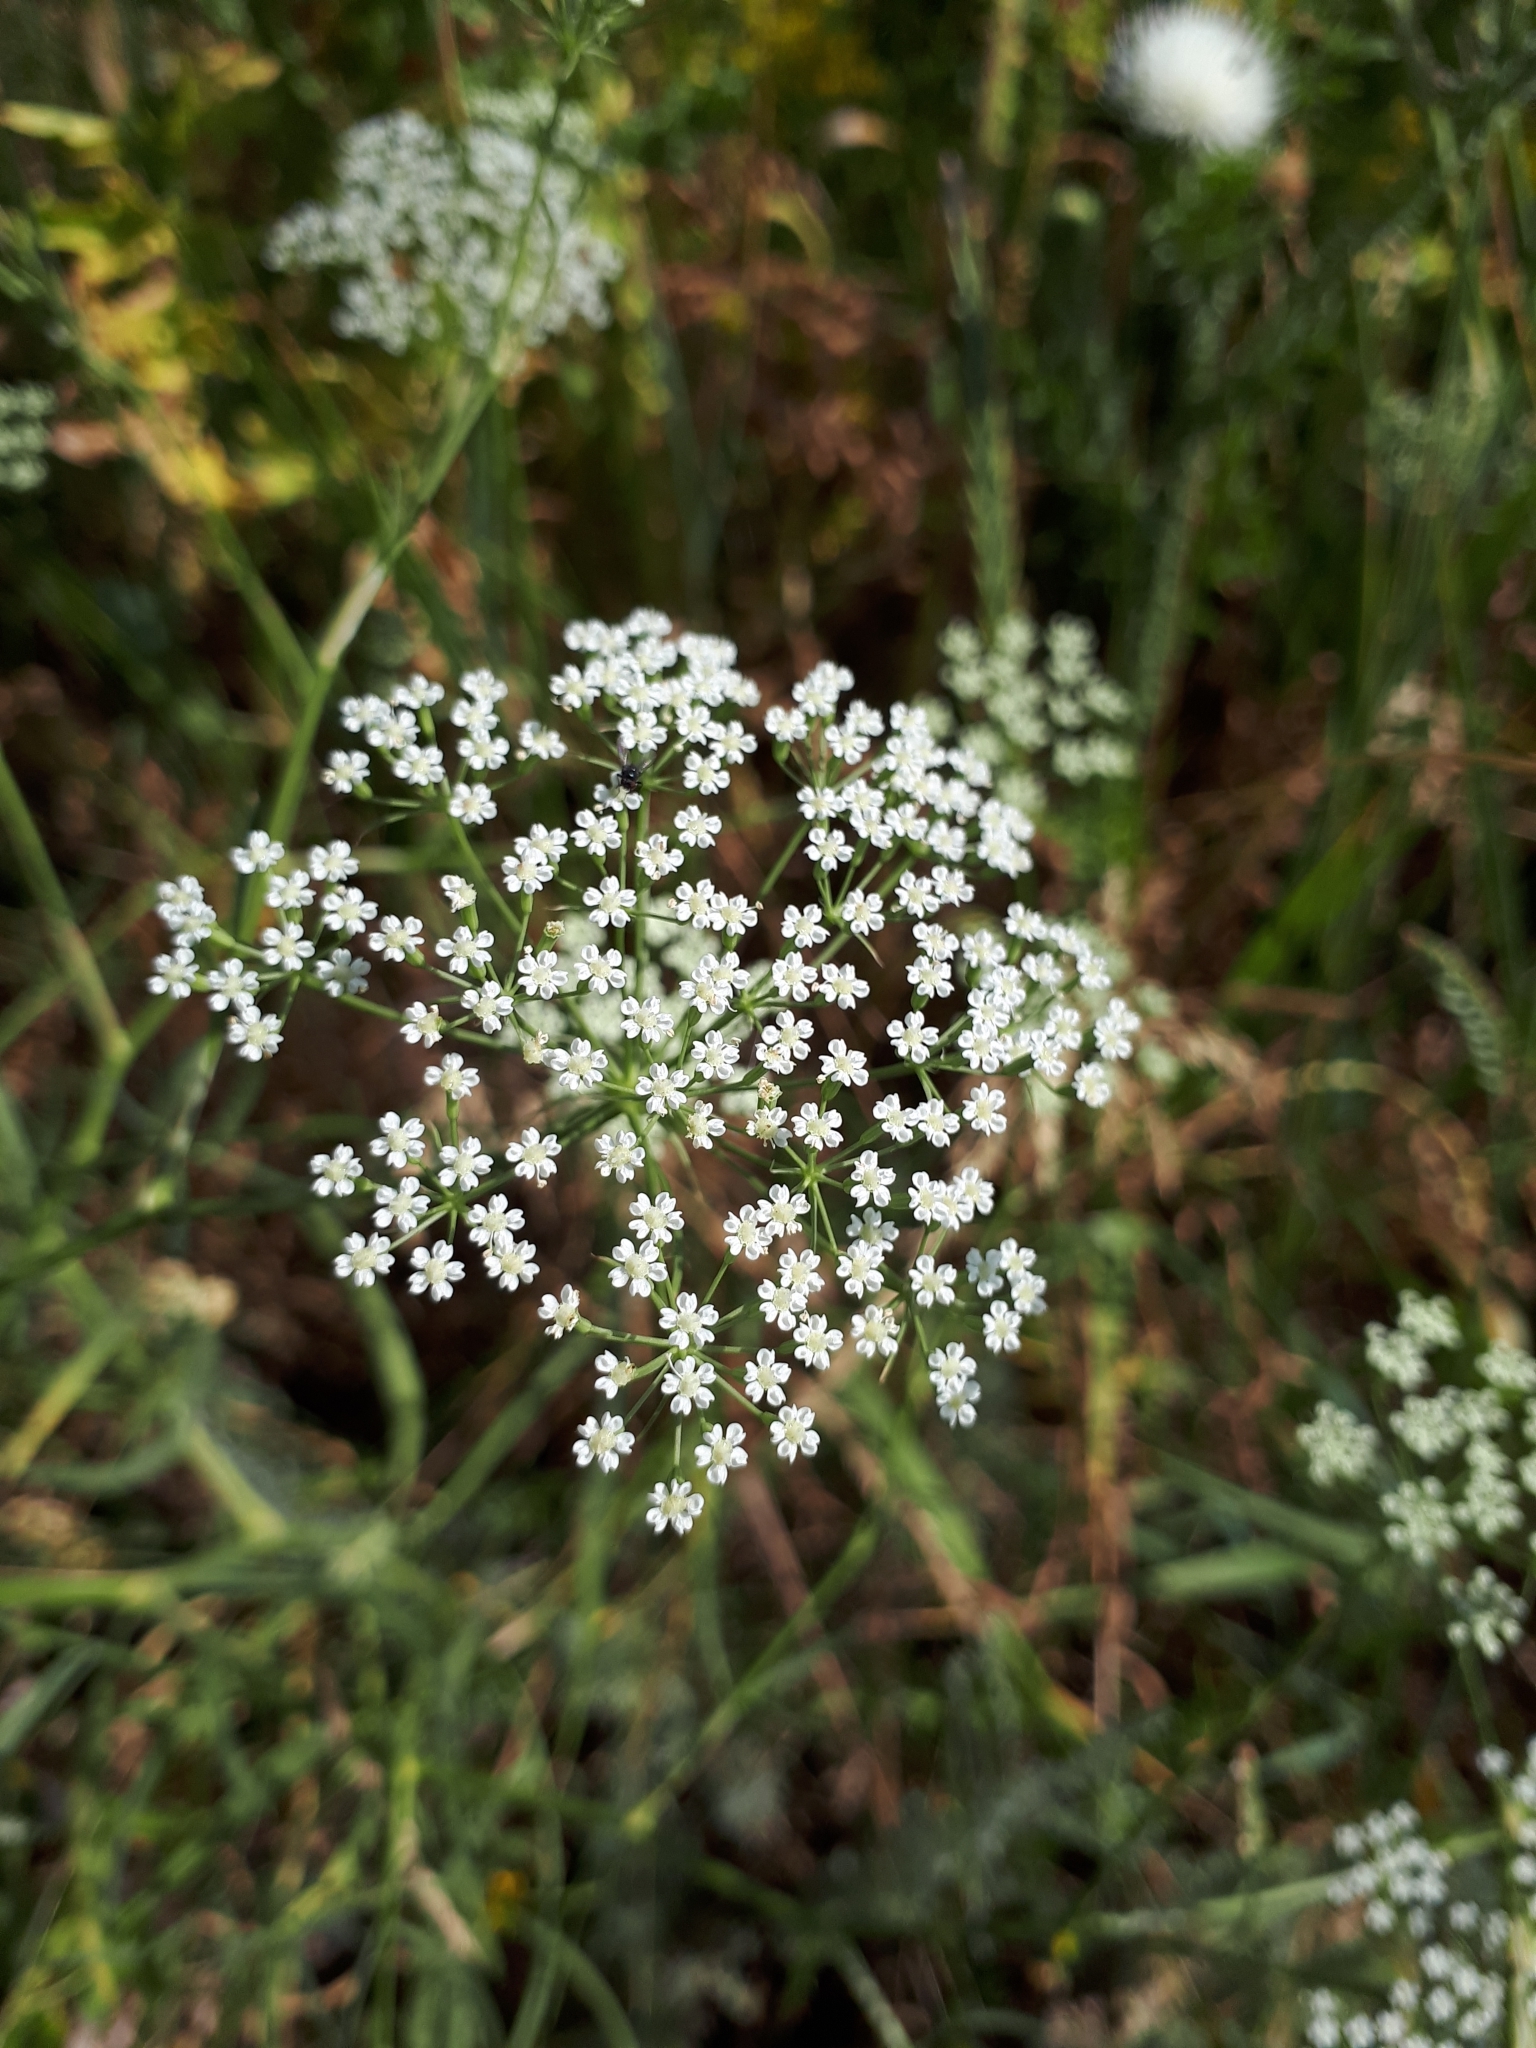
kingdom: Plantae
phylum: Tracheophyta
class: Magnoliopsida
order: Apiales
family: Apiaceae
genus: Falcaria
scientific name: Falcaria vulgaris
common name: Longleaf
